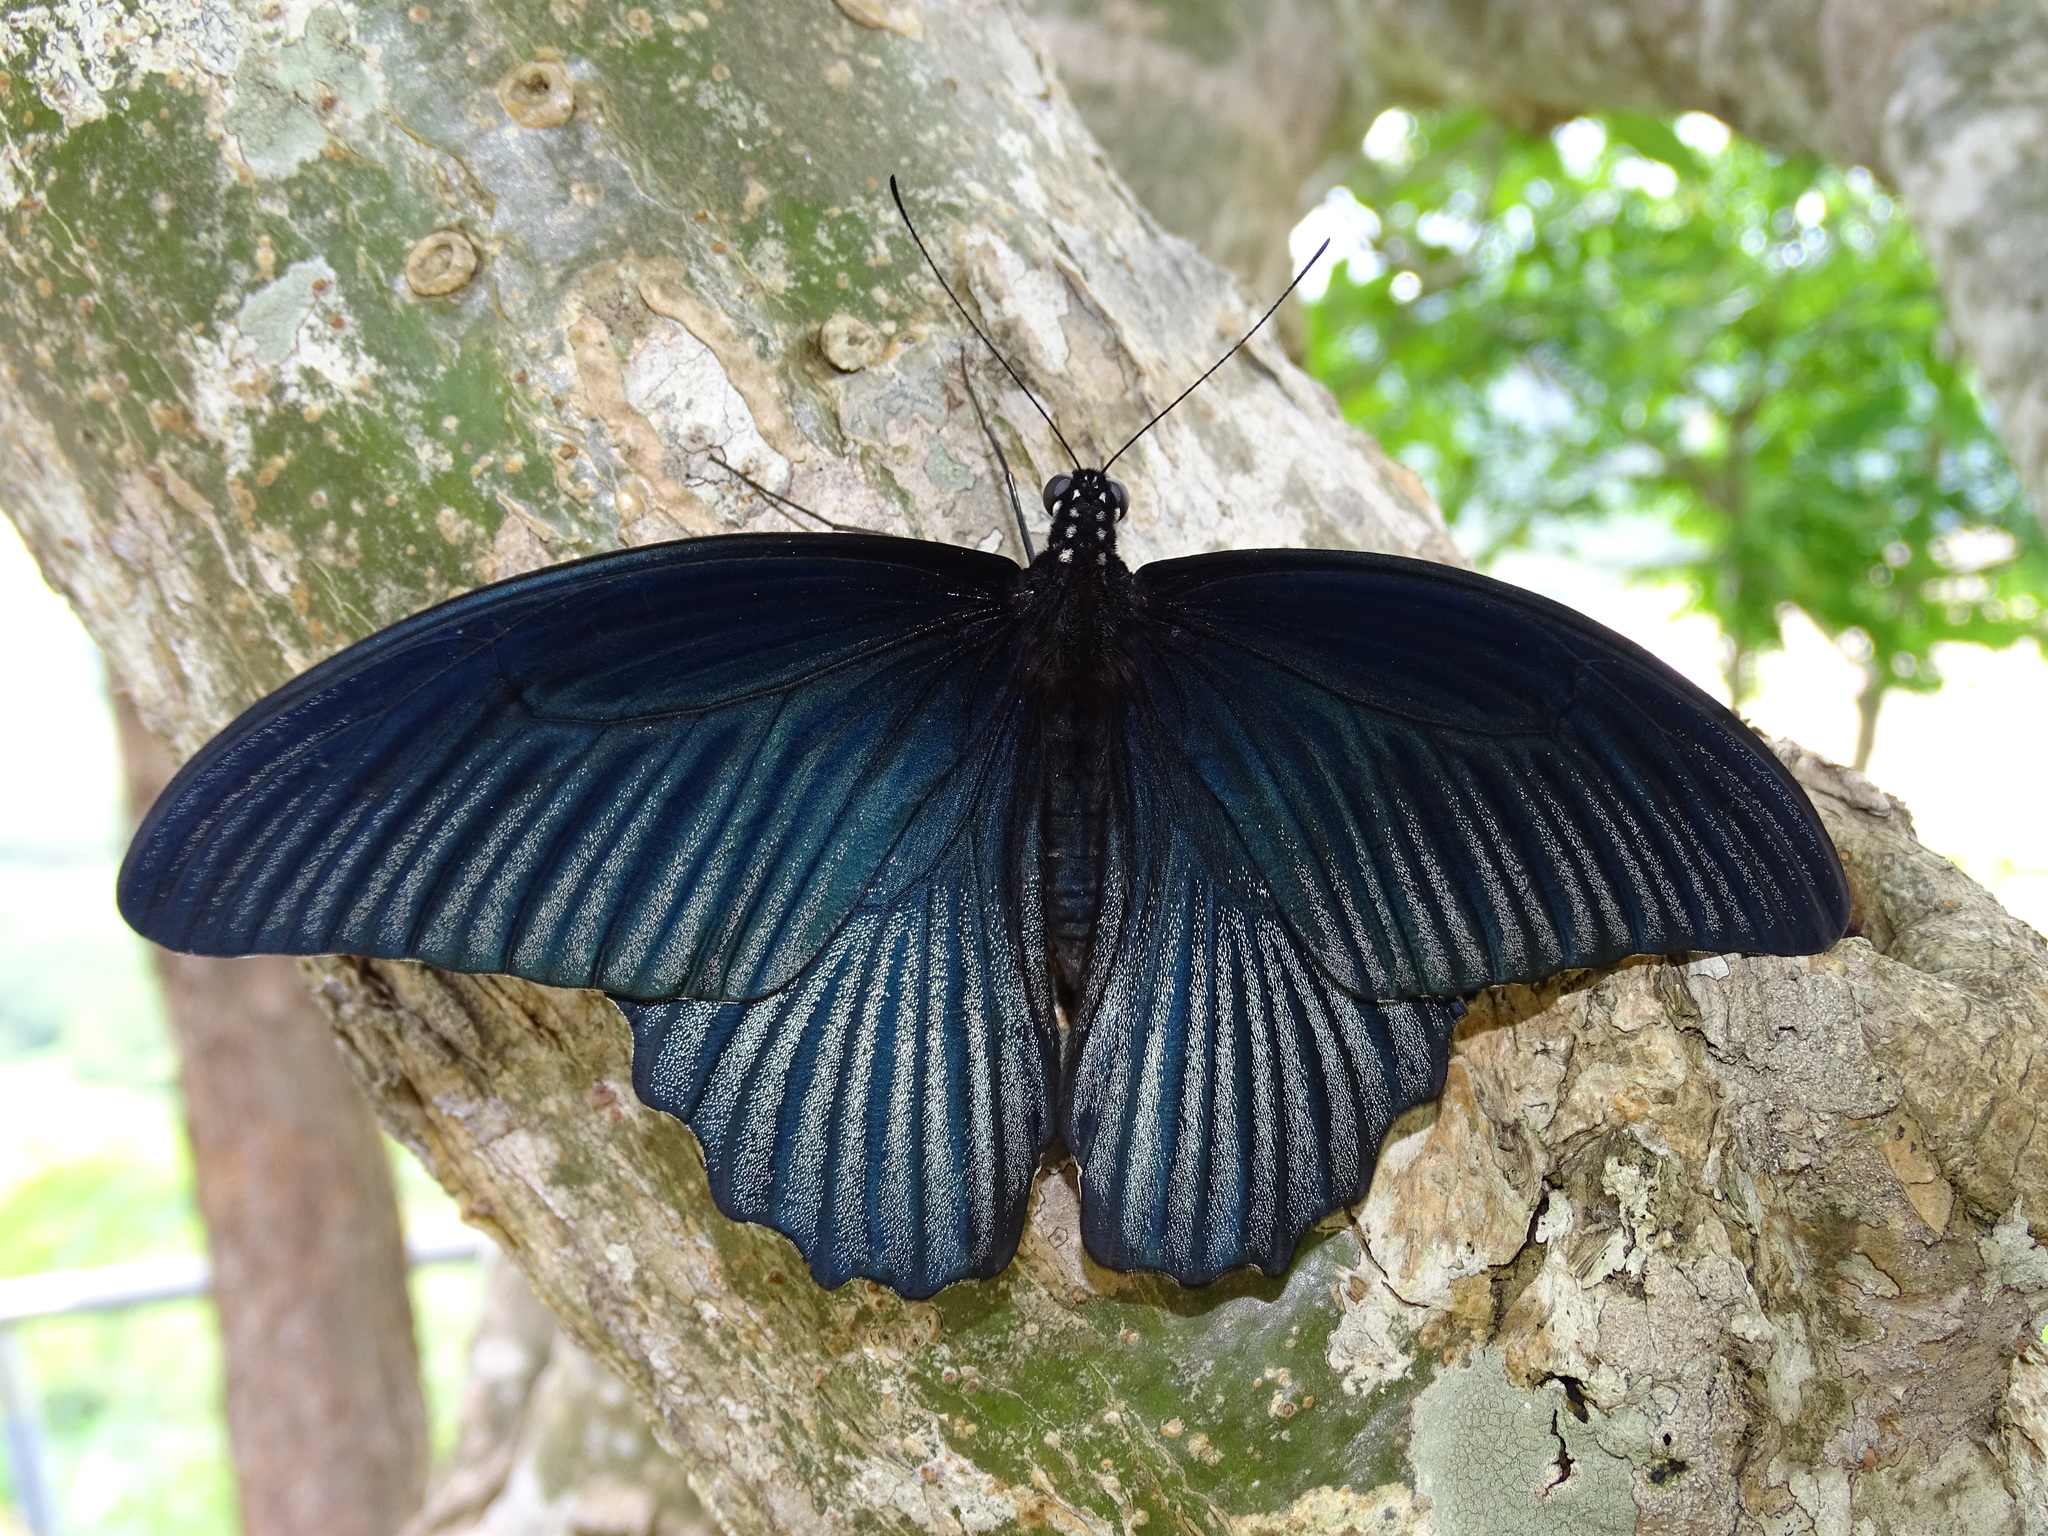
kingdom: Animalia
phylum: Arthropoda
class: Insecta
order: Lepidoptera
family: Papilionidae
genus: Papilio
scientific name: Papilio memnon
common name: Great mormon
